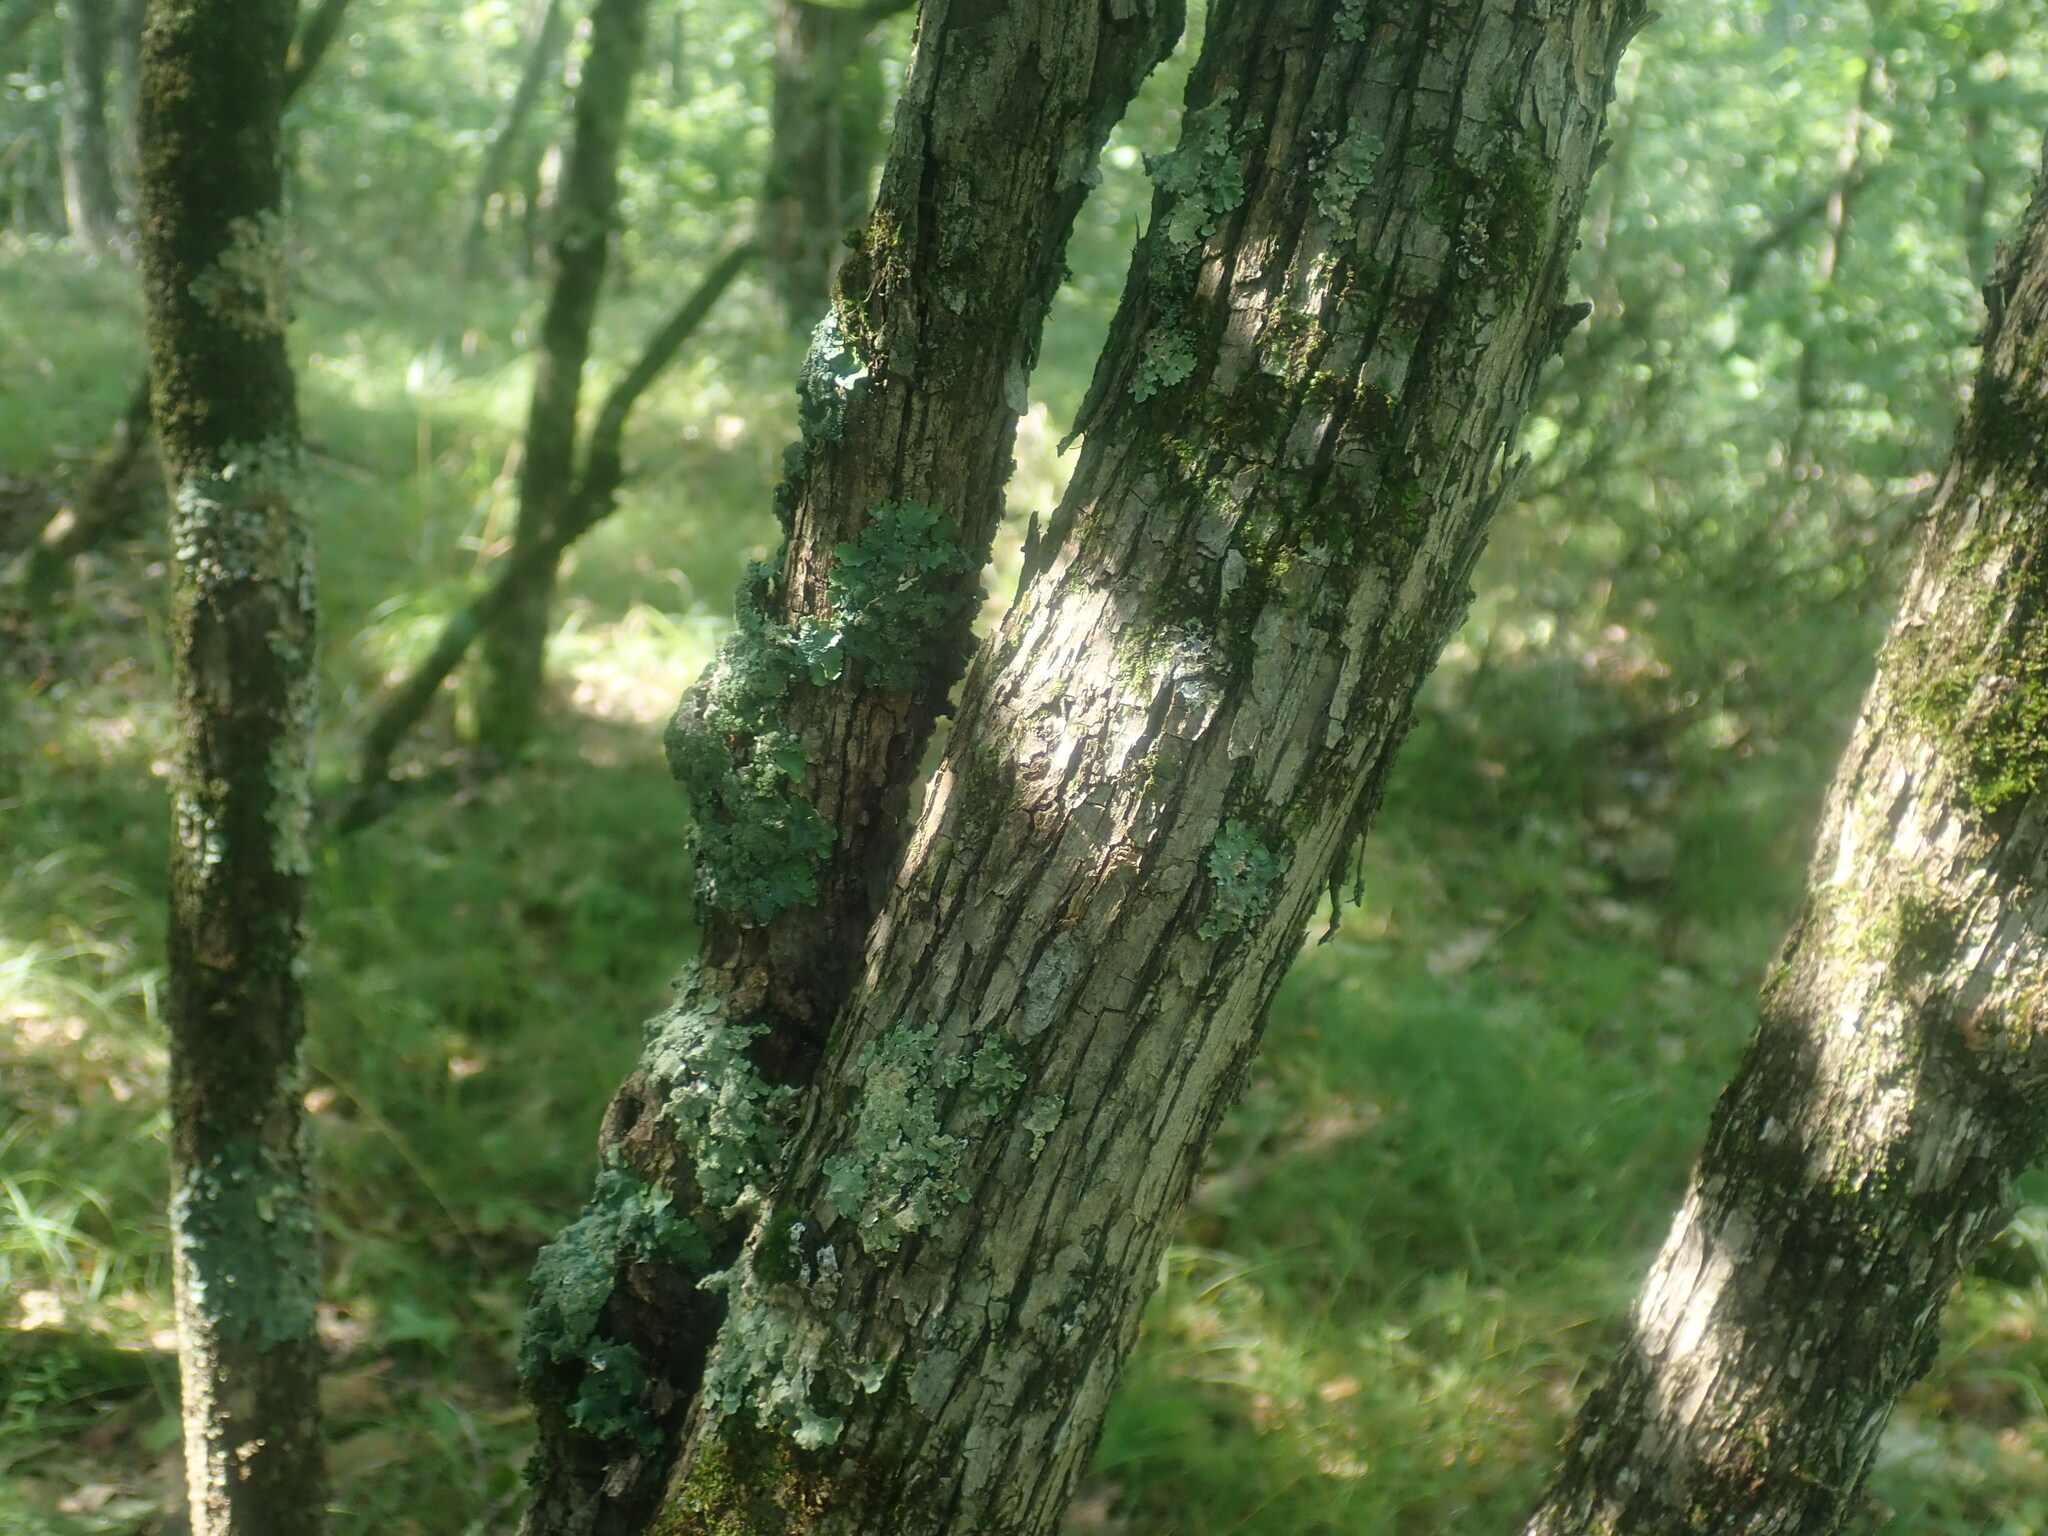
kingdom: Plantae
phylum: Tracheophyta
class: Magnoliopsida
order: Fagales
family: Betulaceae
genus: Ostrya
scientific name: Ostrya virginiana
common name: Ironwood
